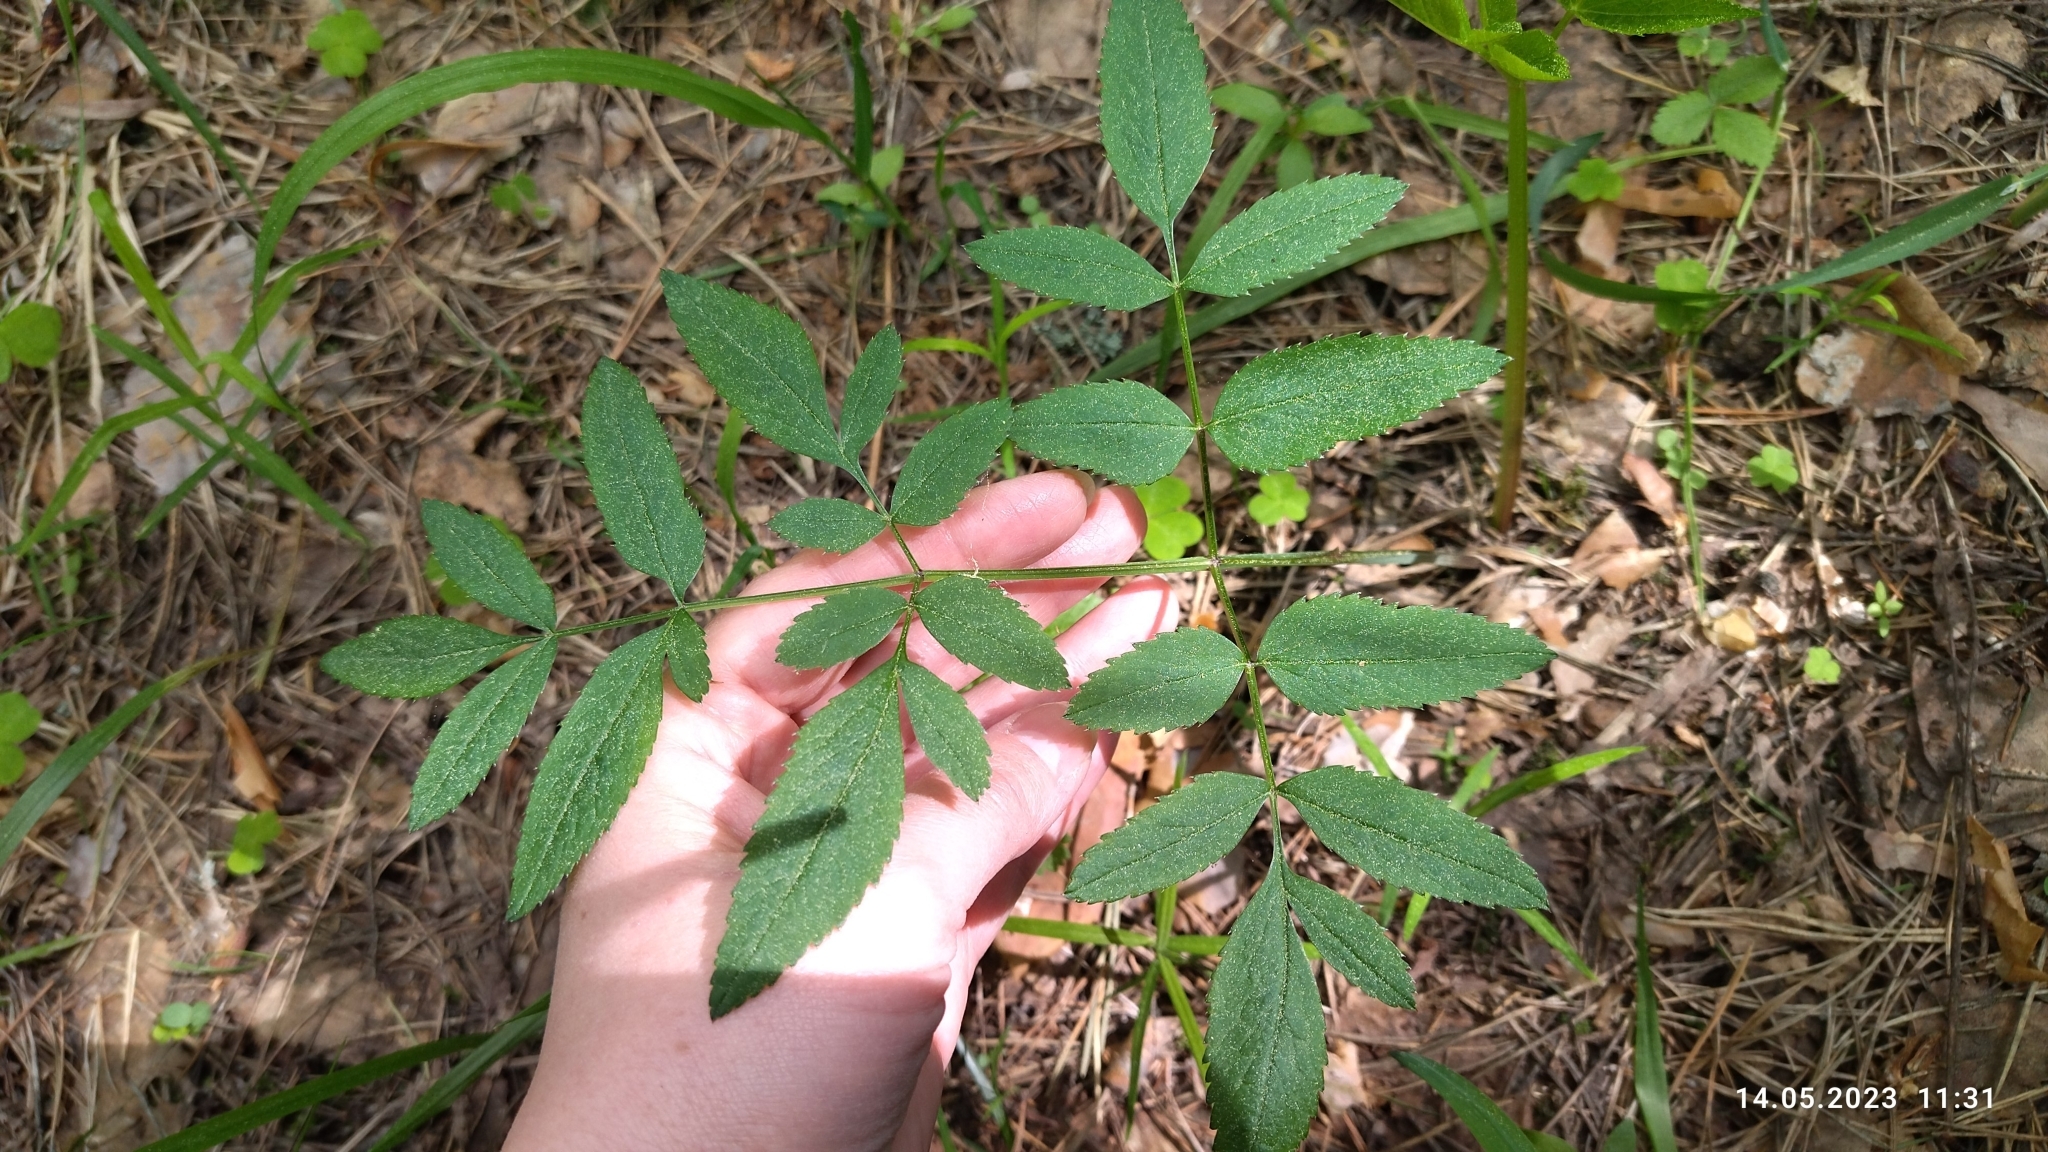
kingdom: Plantae
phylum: Tracheophyta
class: Magnoliopsida
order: Apiales
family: Apiaceae
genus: Angelica
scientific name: Angelica sylvestris
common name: Wild angelica
